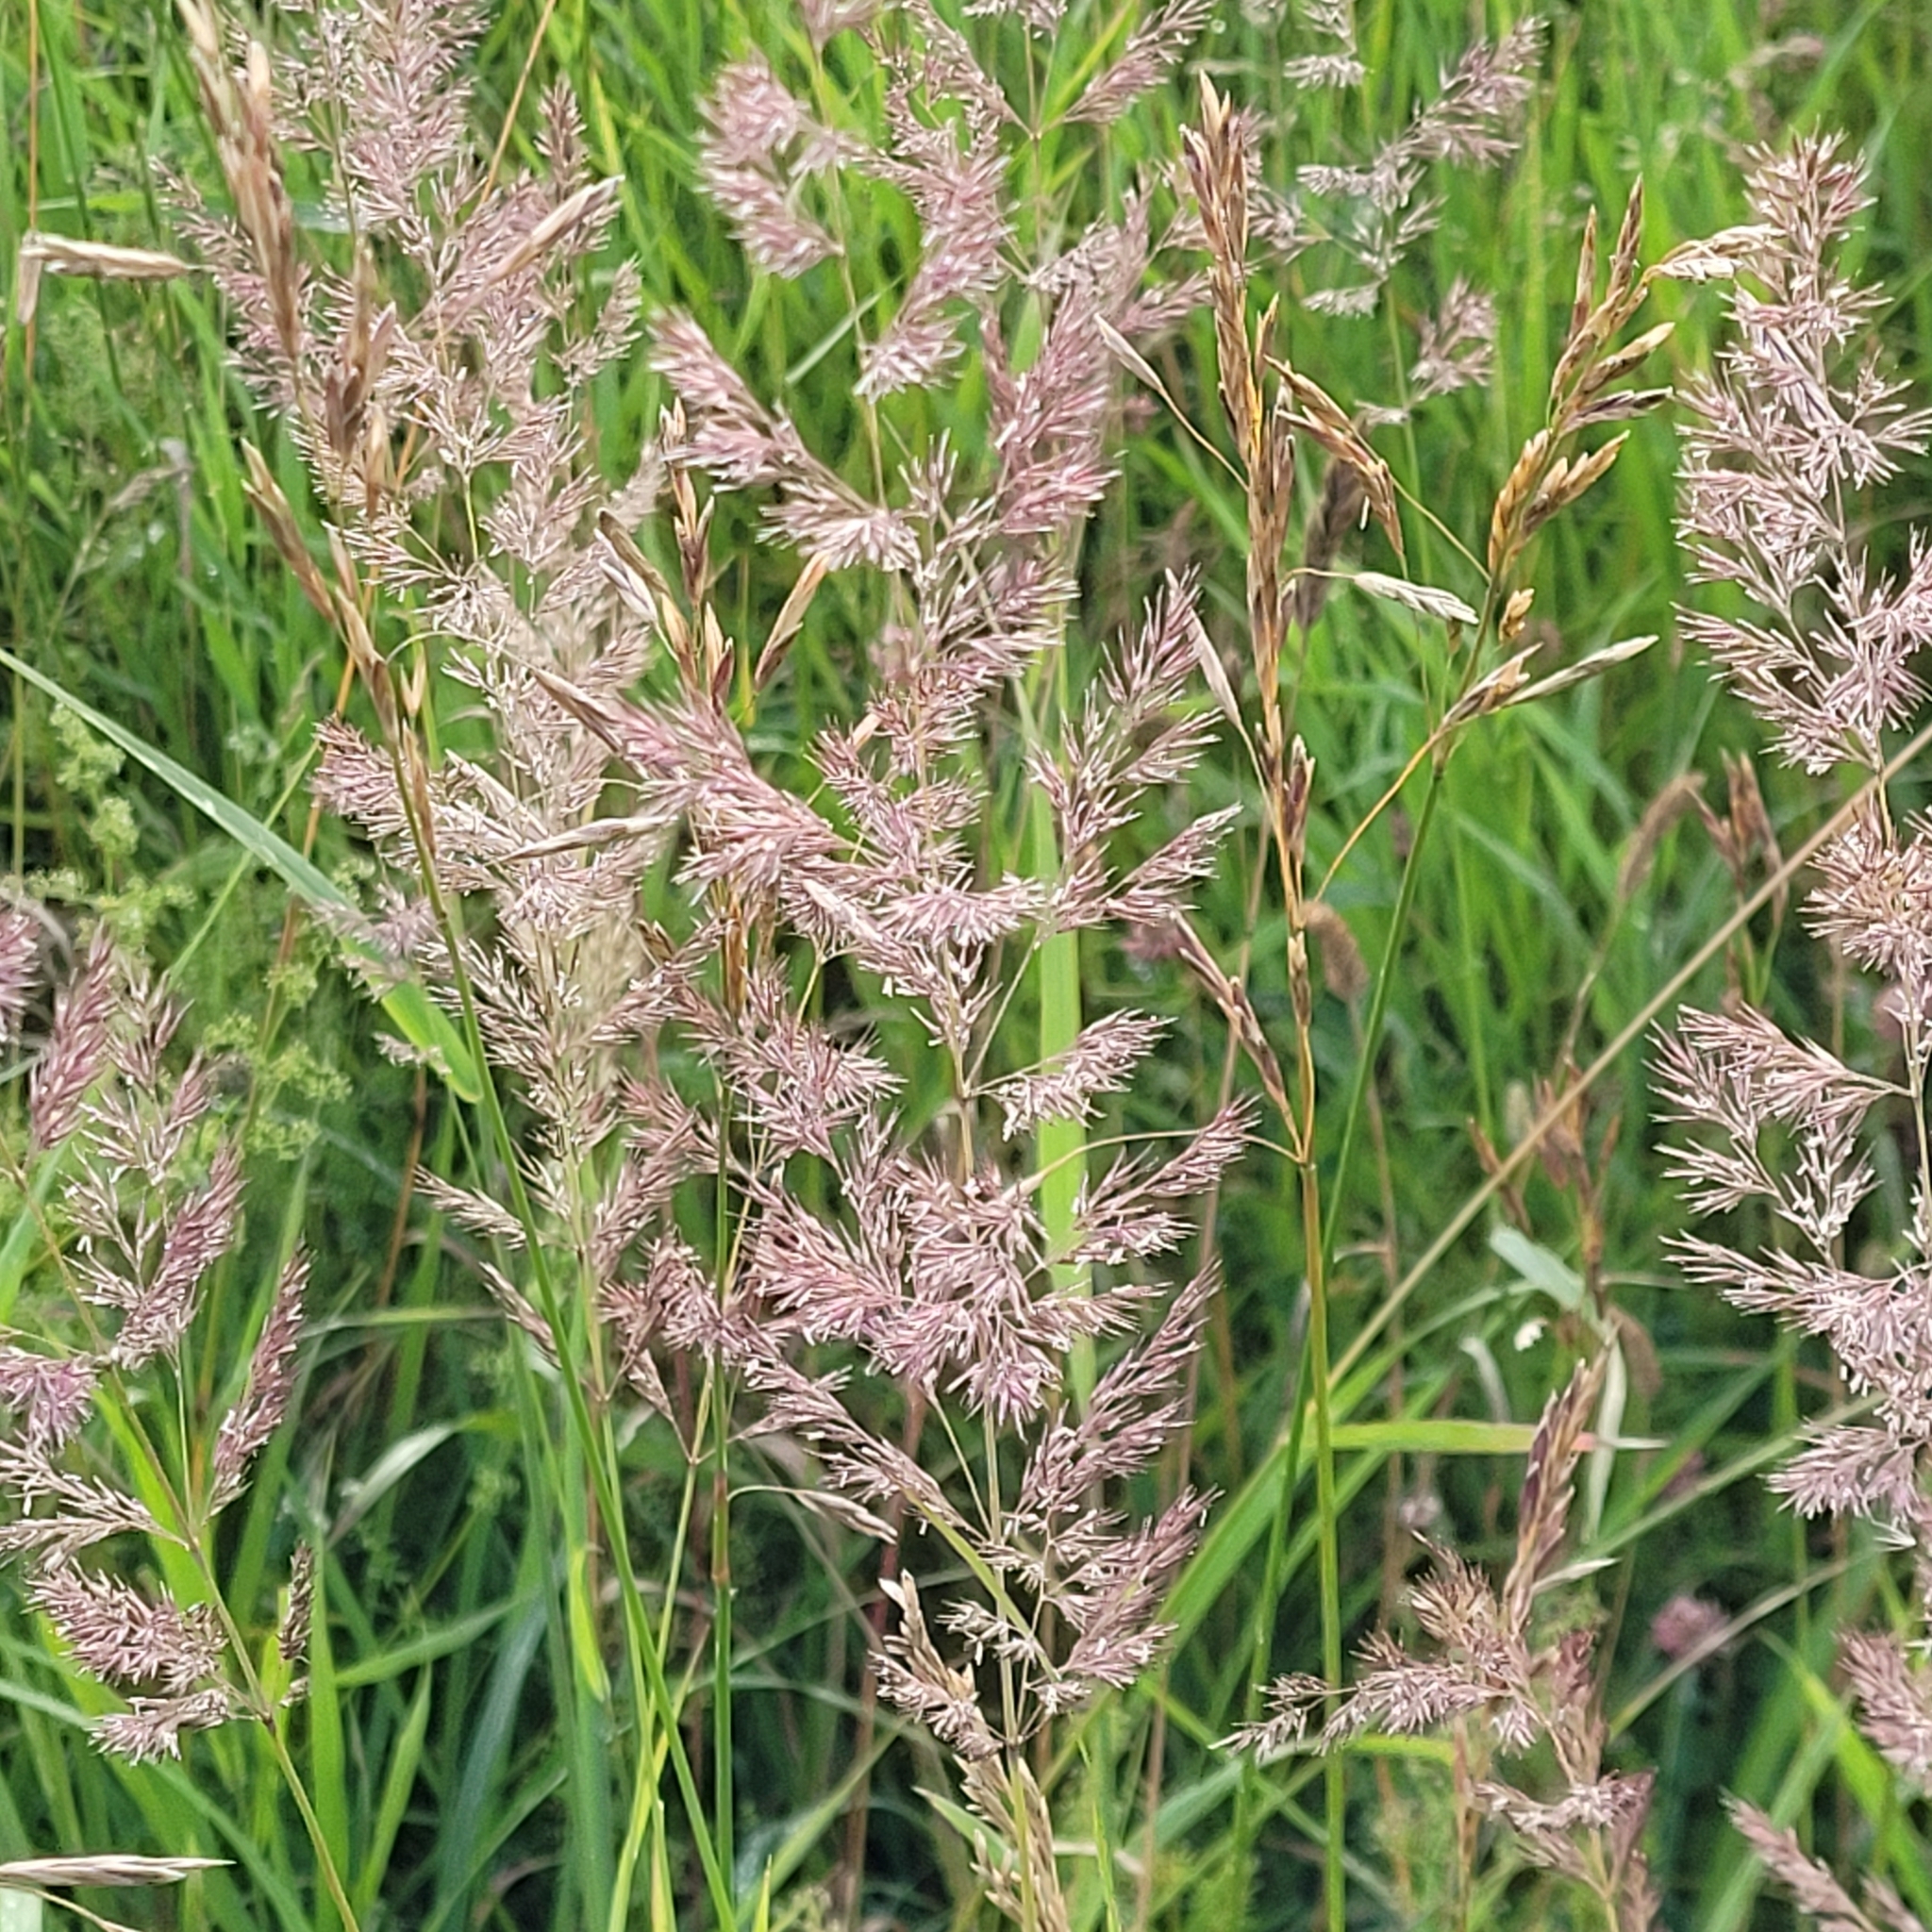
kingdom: Plantae
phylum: Tracheophyta
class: Liliopsida
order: Poales
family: Poaceae
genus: Calamagrostis
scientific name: Calamagrostis epigejos
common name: Wood small-reed
